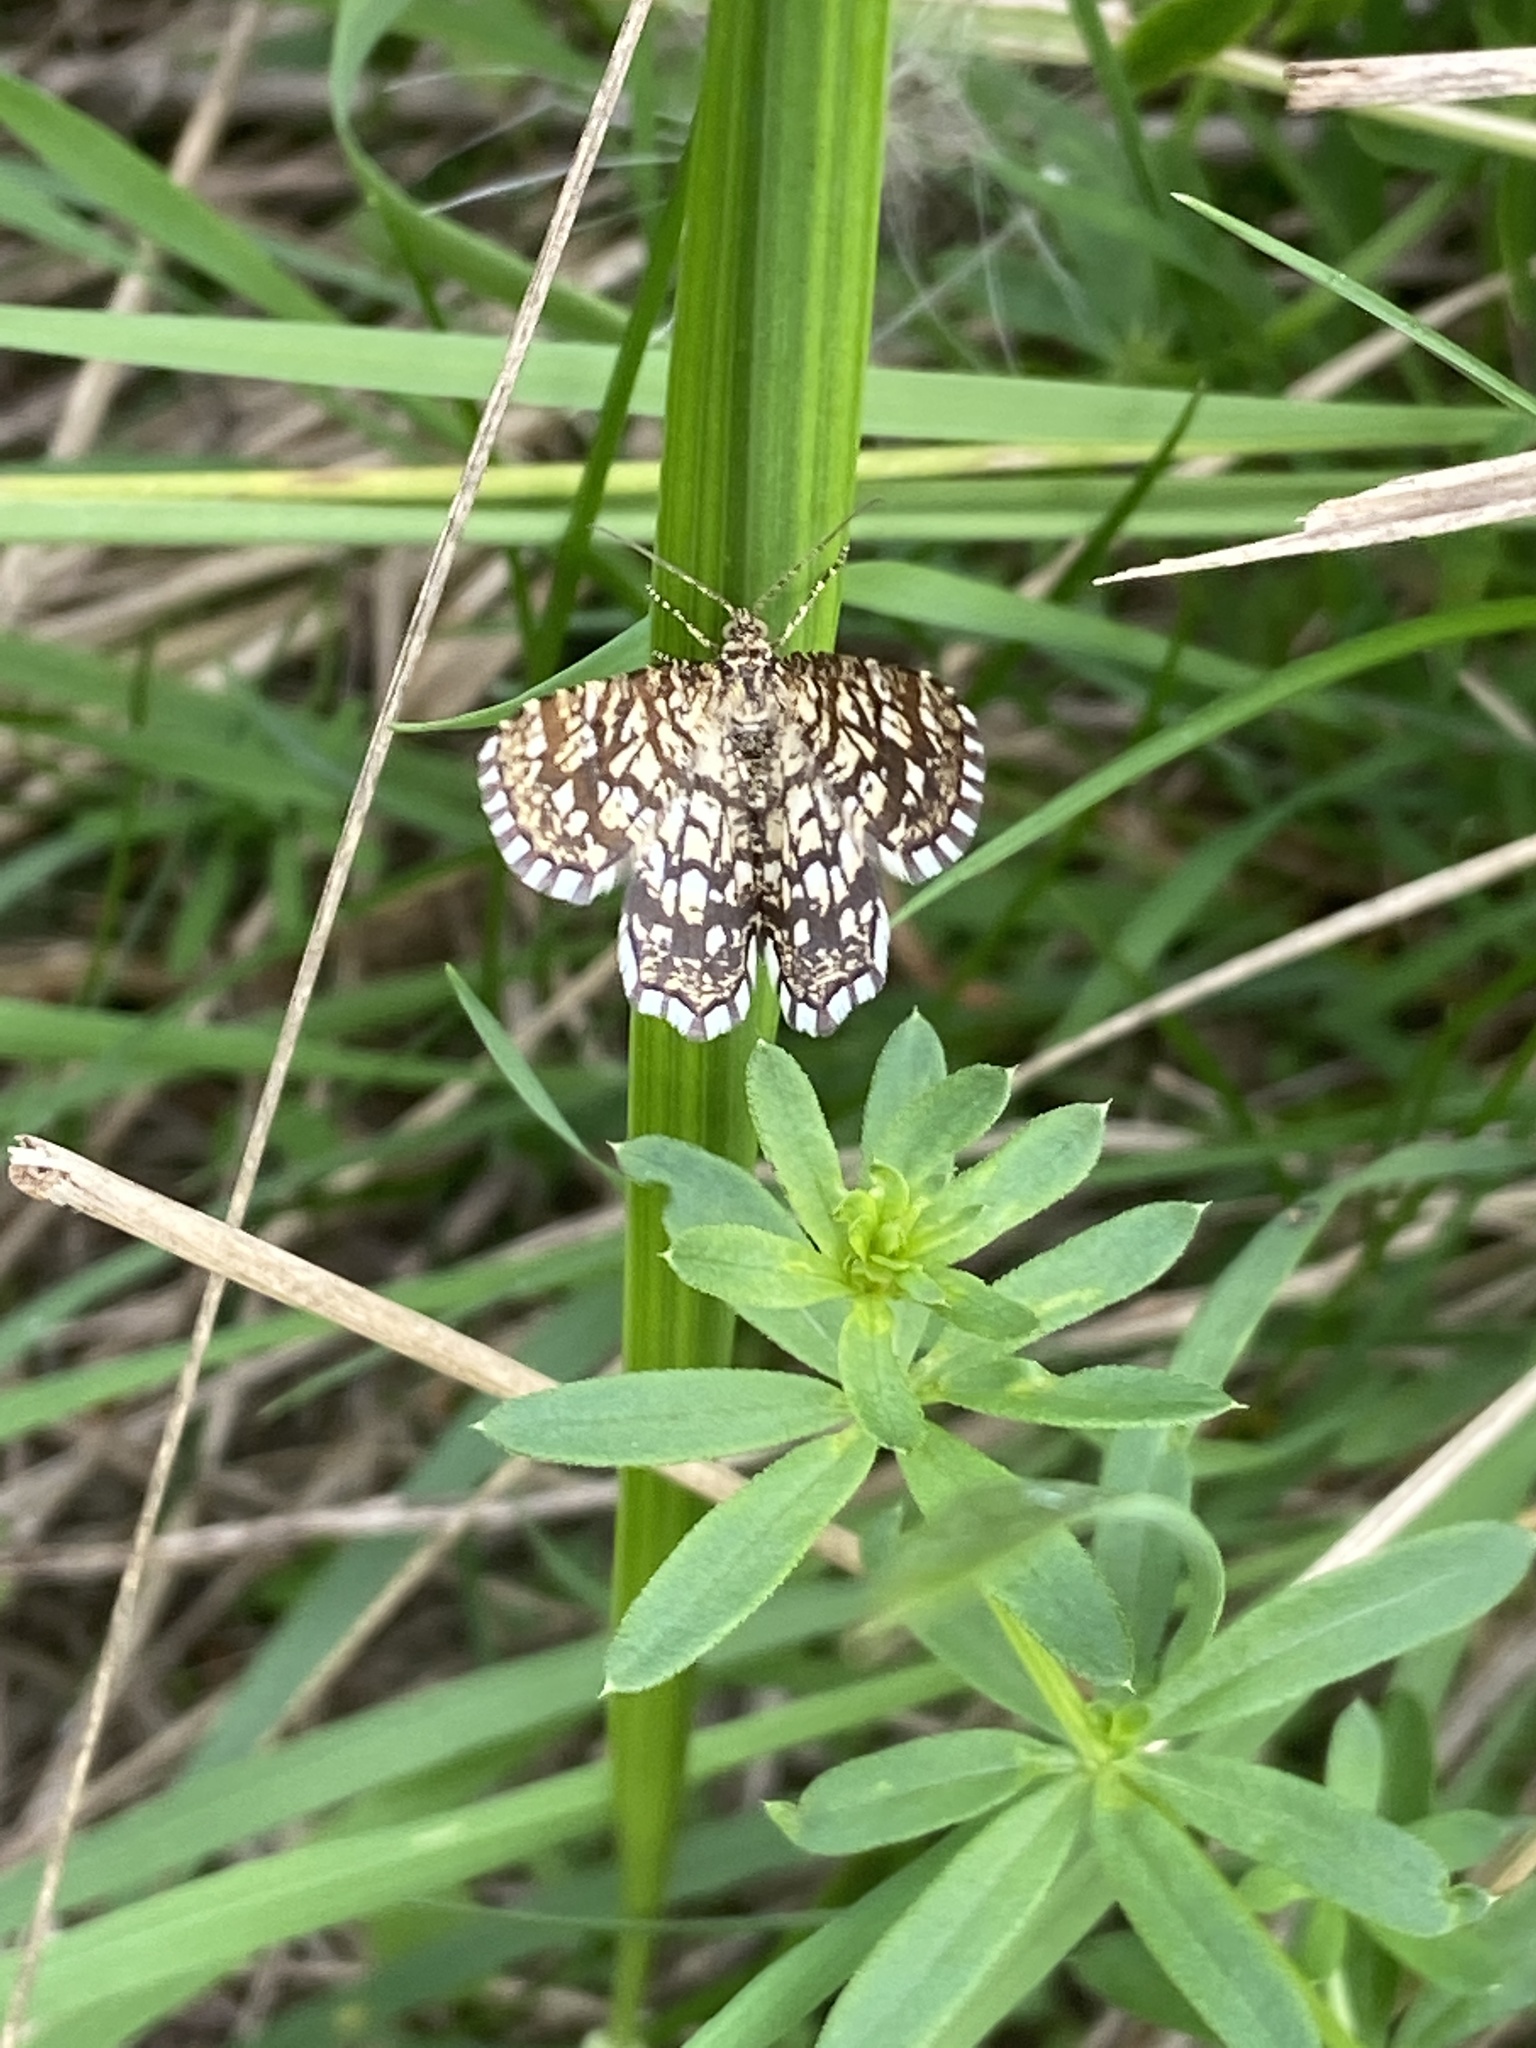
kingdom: Animalia
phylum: Arthropoda
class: Insecta
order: Lepidoptera
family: Geometridae
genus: Chiasmia
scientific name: Chiasmia clathrata
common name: Latticed heath
